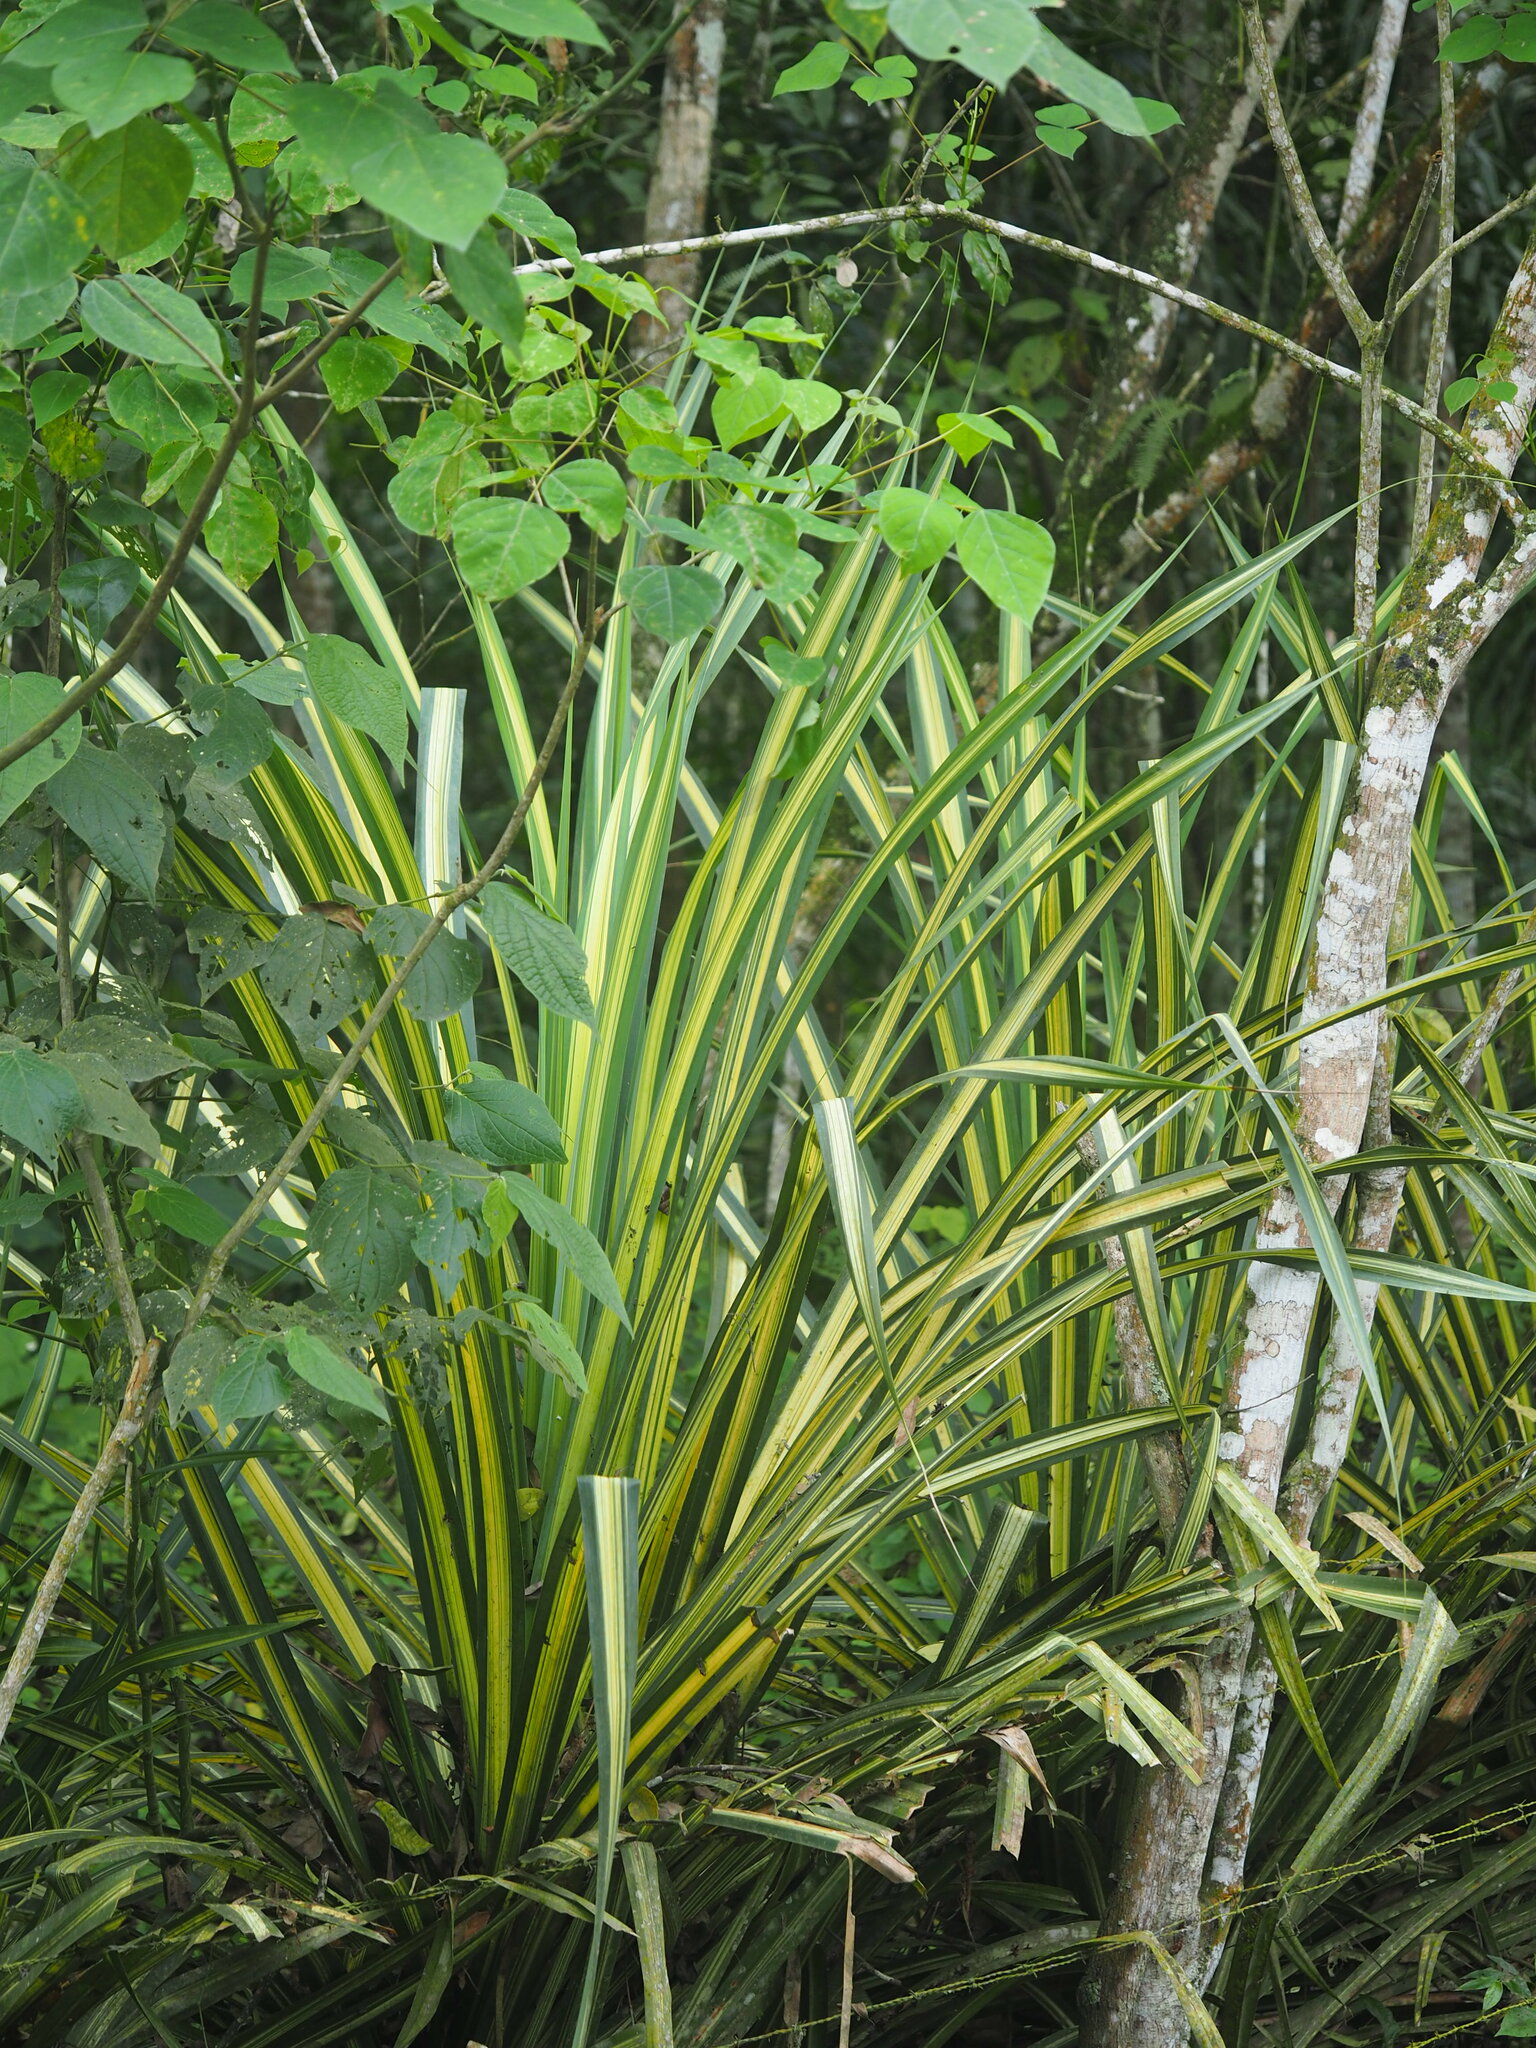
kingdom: Plantae
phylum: Tracheophyta
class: Liliopsida
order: Poales
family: Cyperaceae
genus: Carex
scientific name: Carex morrowii
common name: Japanese sedge
